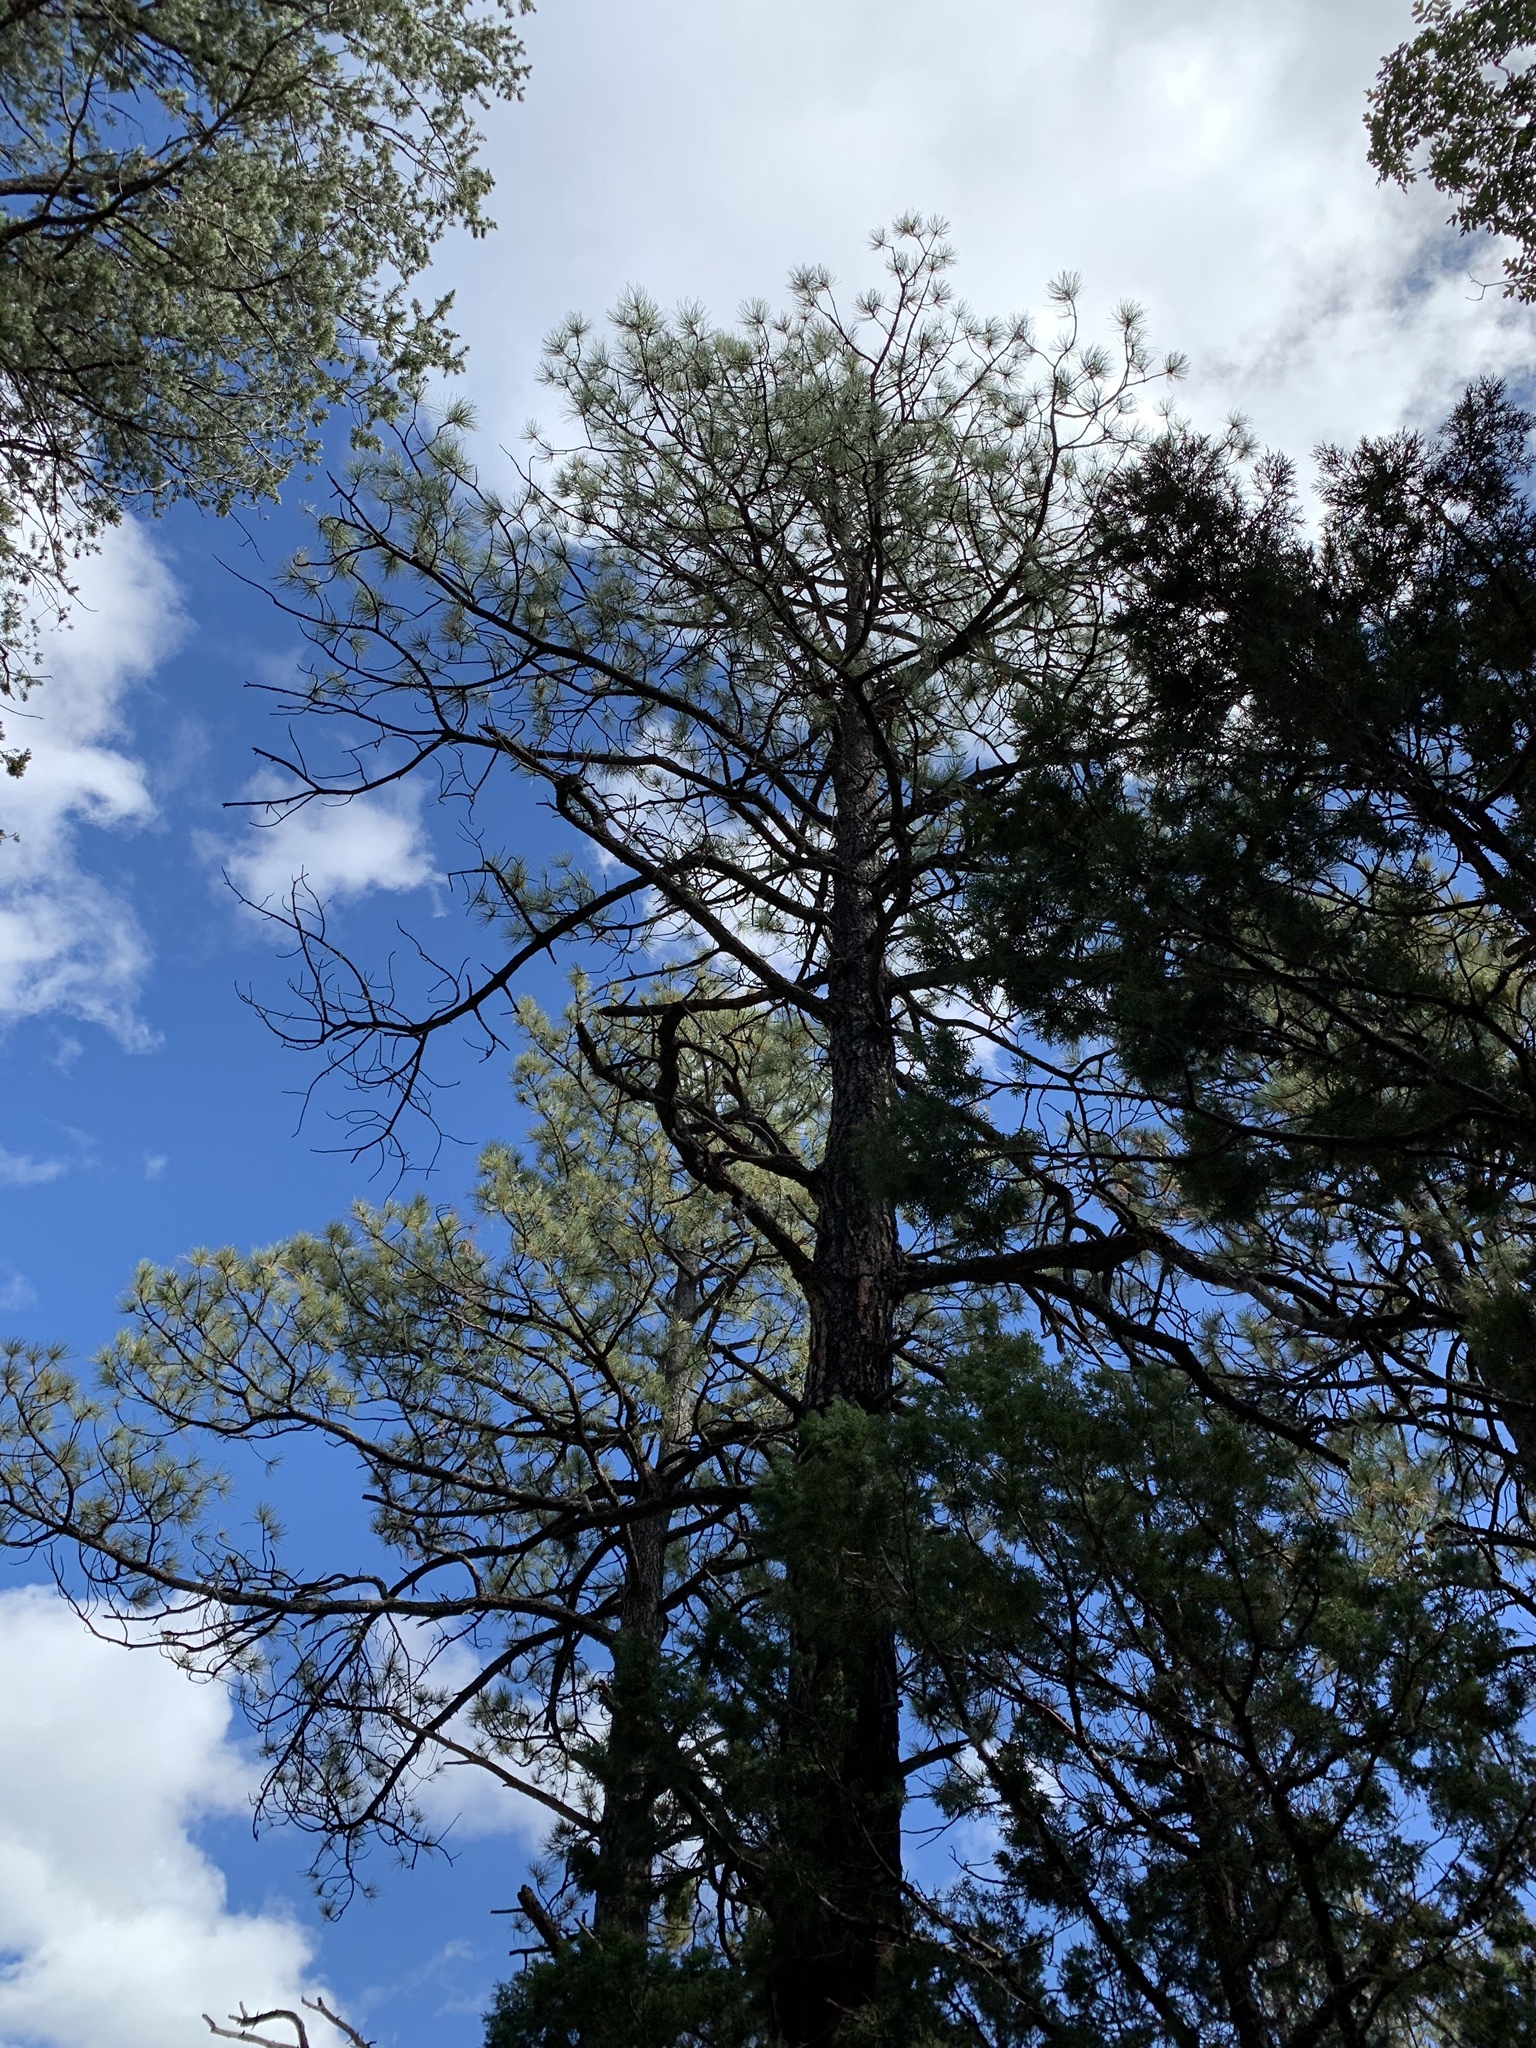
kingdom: Plantae
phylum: Tracheophyta
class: Pinopsida
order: Pinales
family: Pinaceae
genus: Pinus
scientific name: Pinus ponderosa
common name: Western yellow-pine
